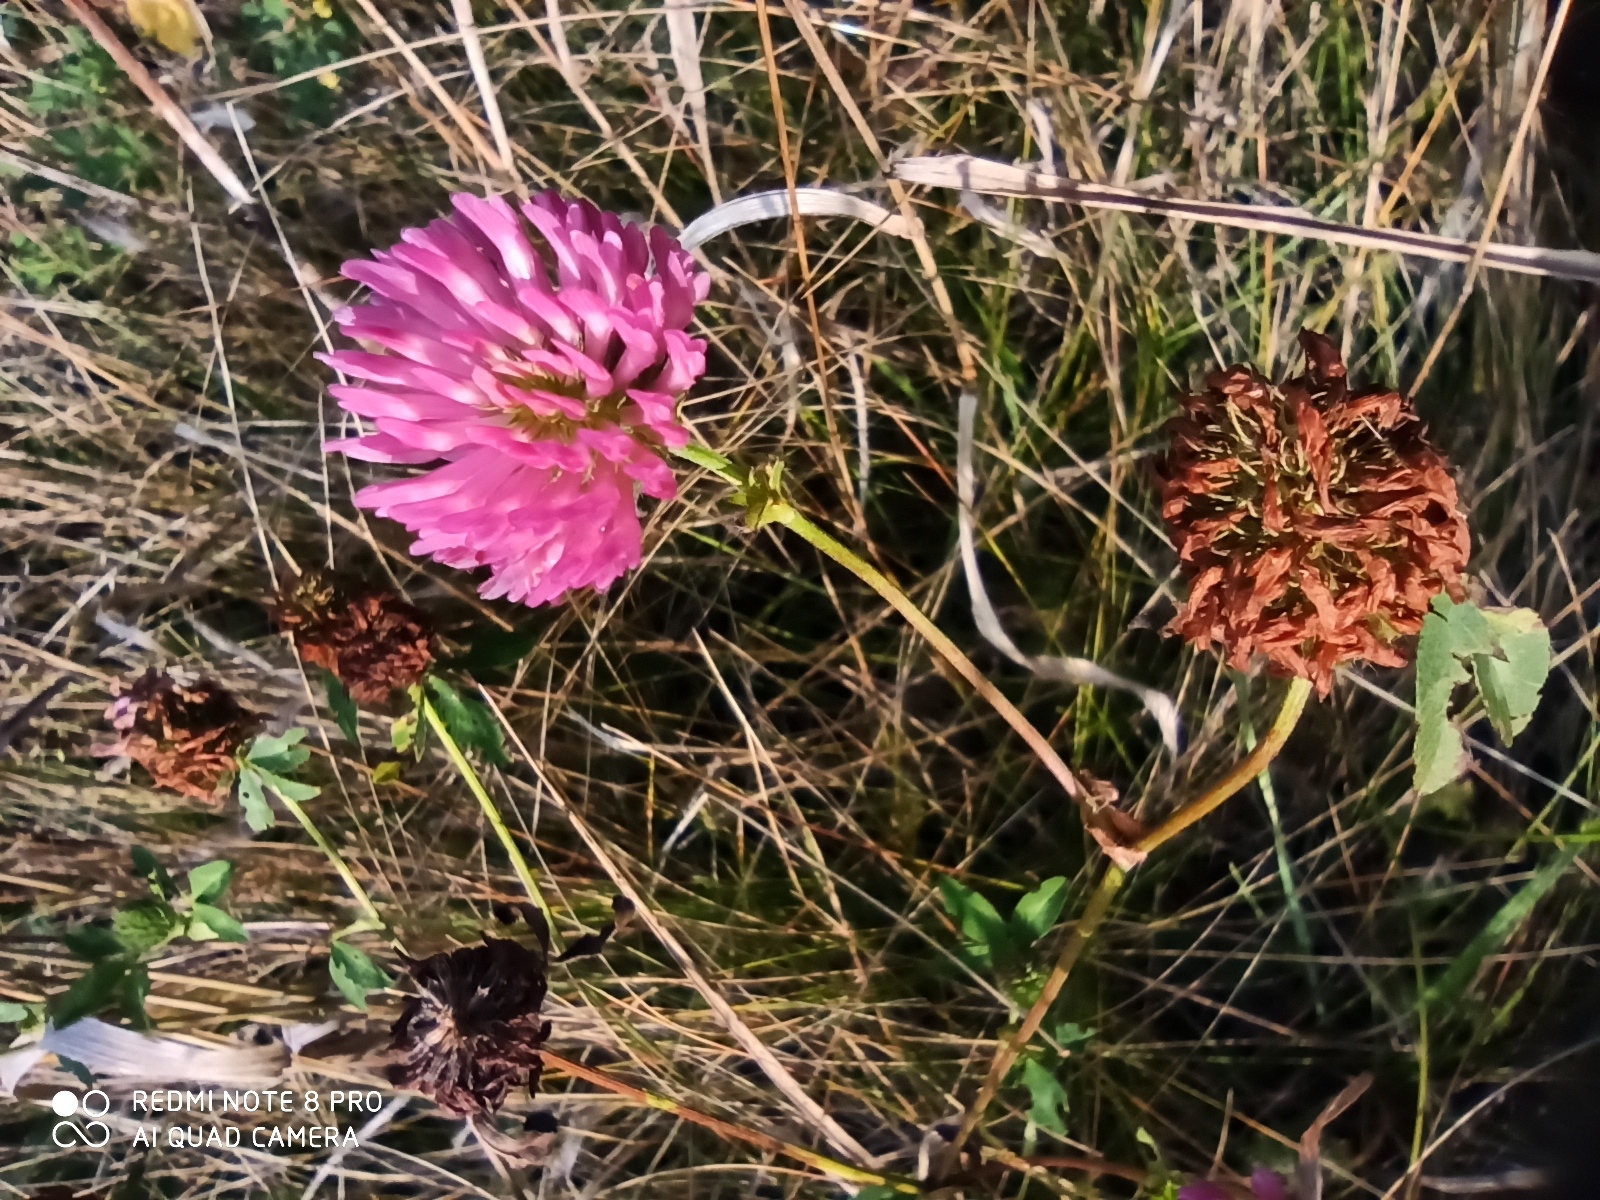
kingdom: Plantae
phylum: Tracheophyta
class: Magnoliopsida
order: Fabales
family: Fabaceae
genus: Trifolium
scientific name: Trifolium pratense
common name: Red clover
